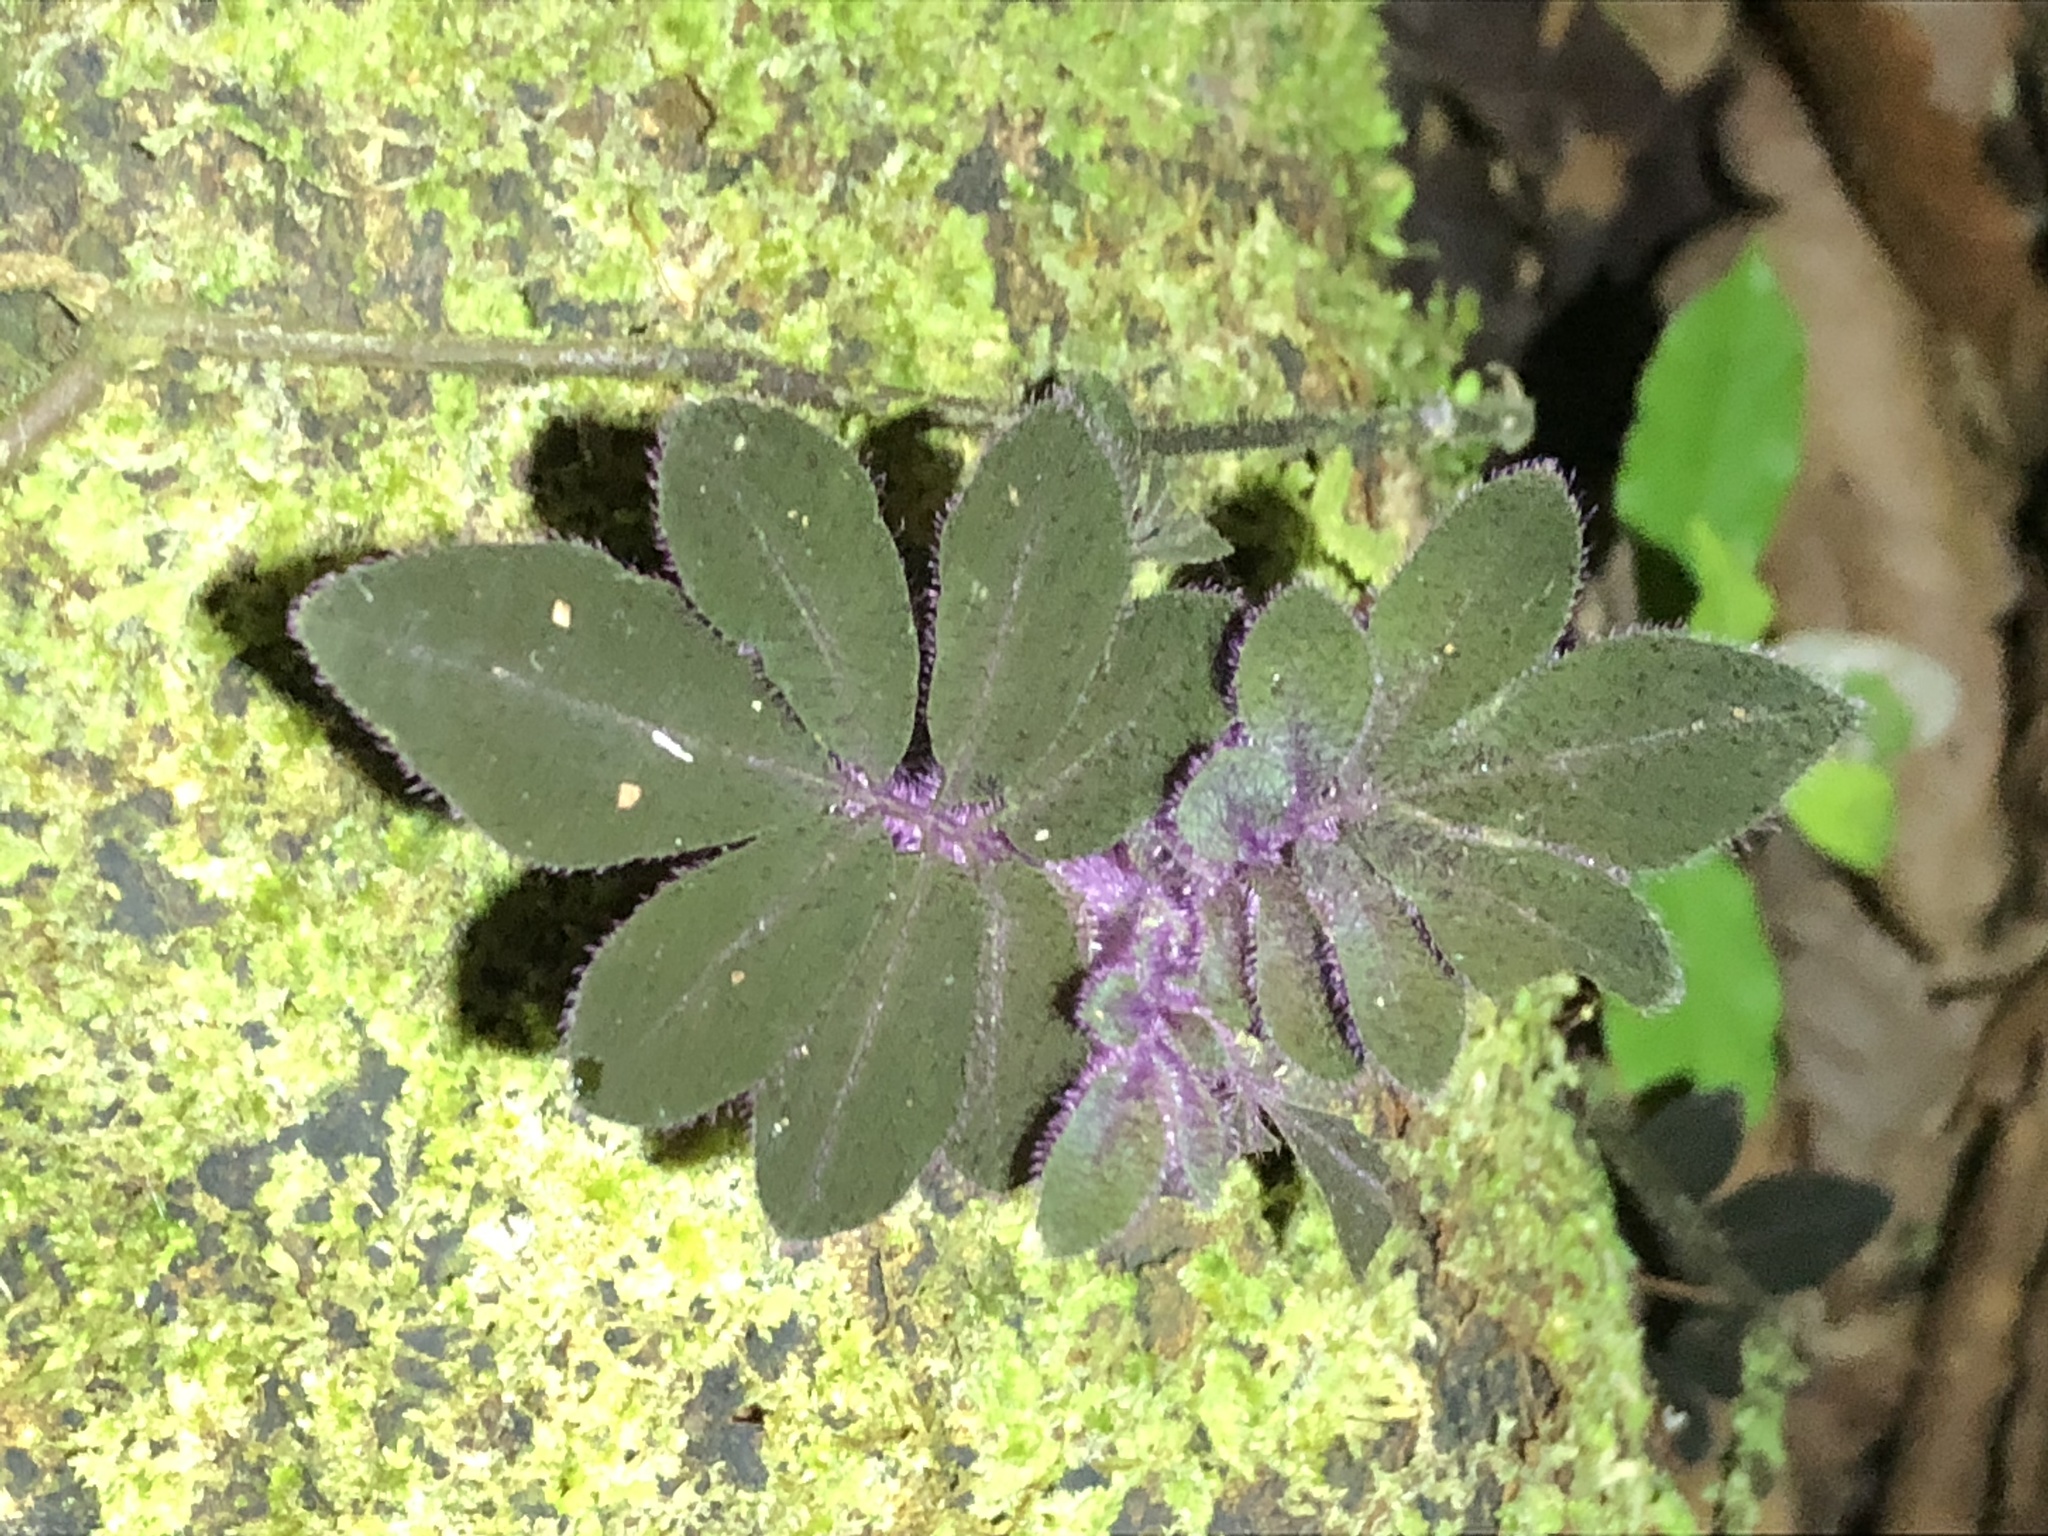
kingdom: Plantae
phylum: Tracheophyta
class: Magnoliopsida
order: Solanales
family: Solanaceae
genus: Solanum
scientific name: Solanum uleanum
